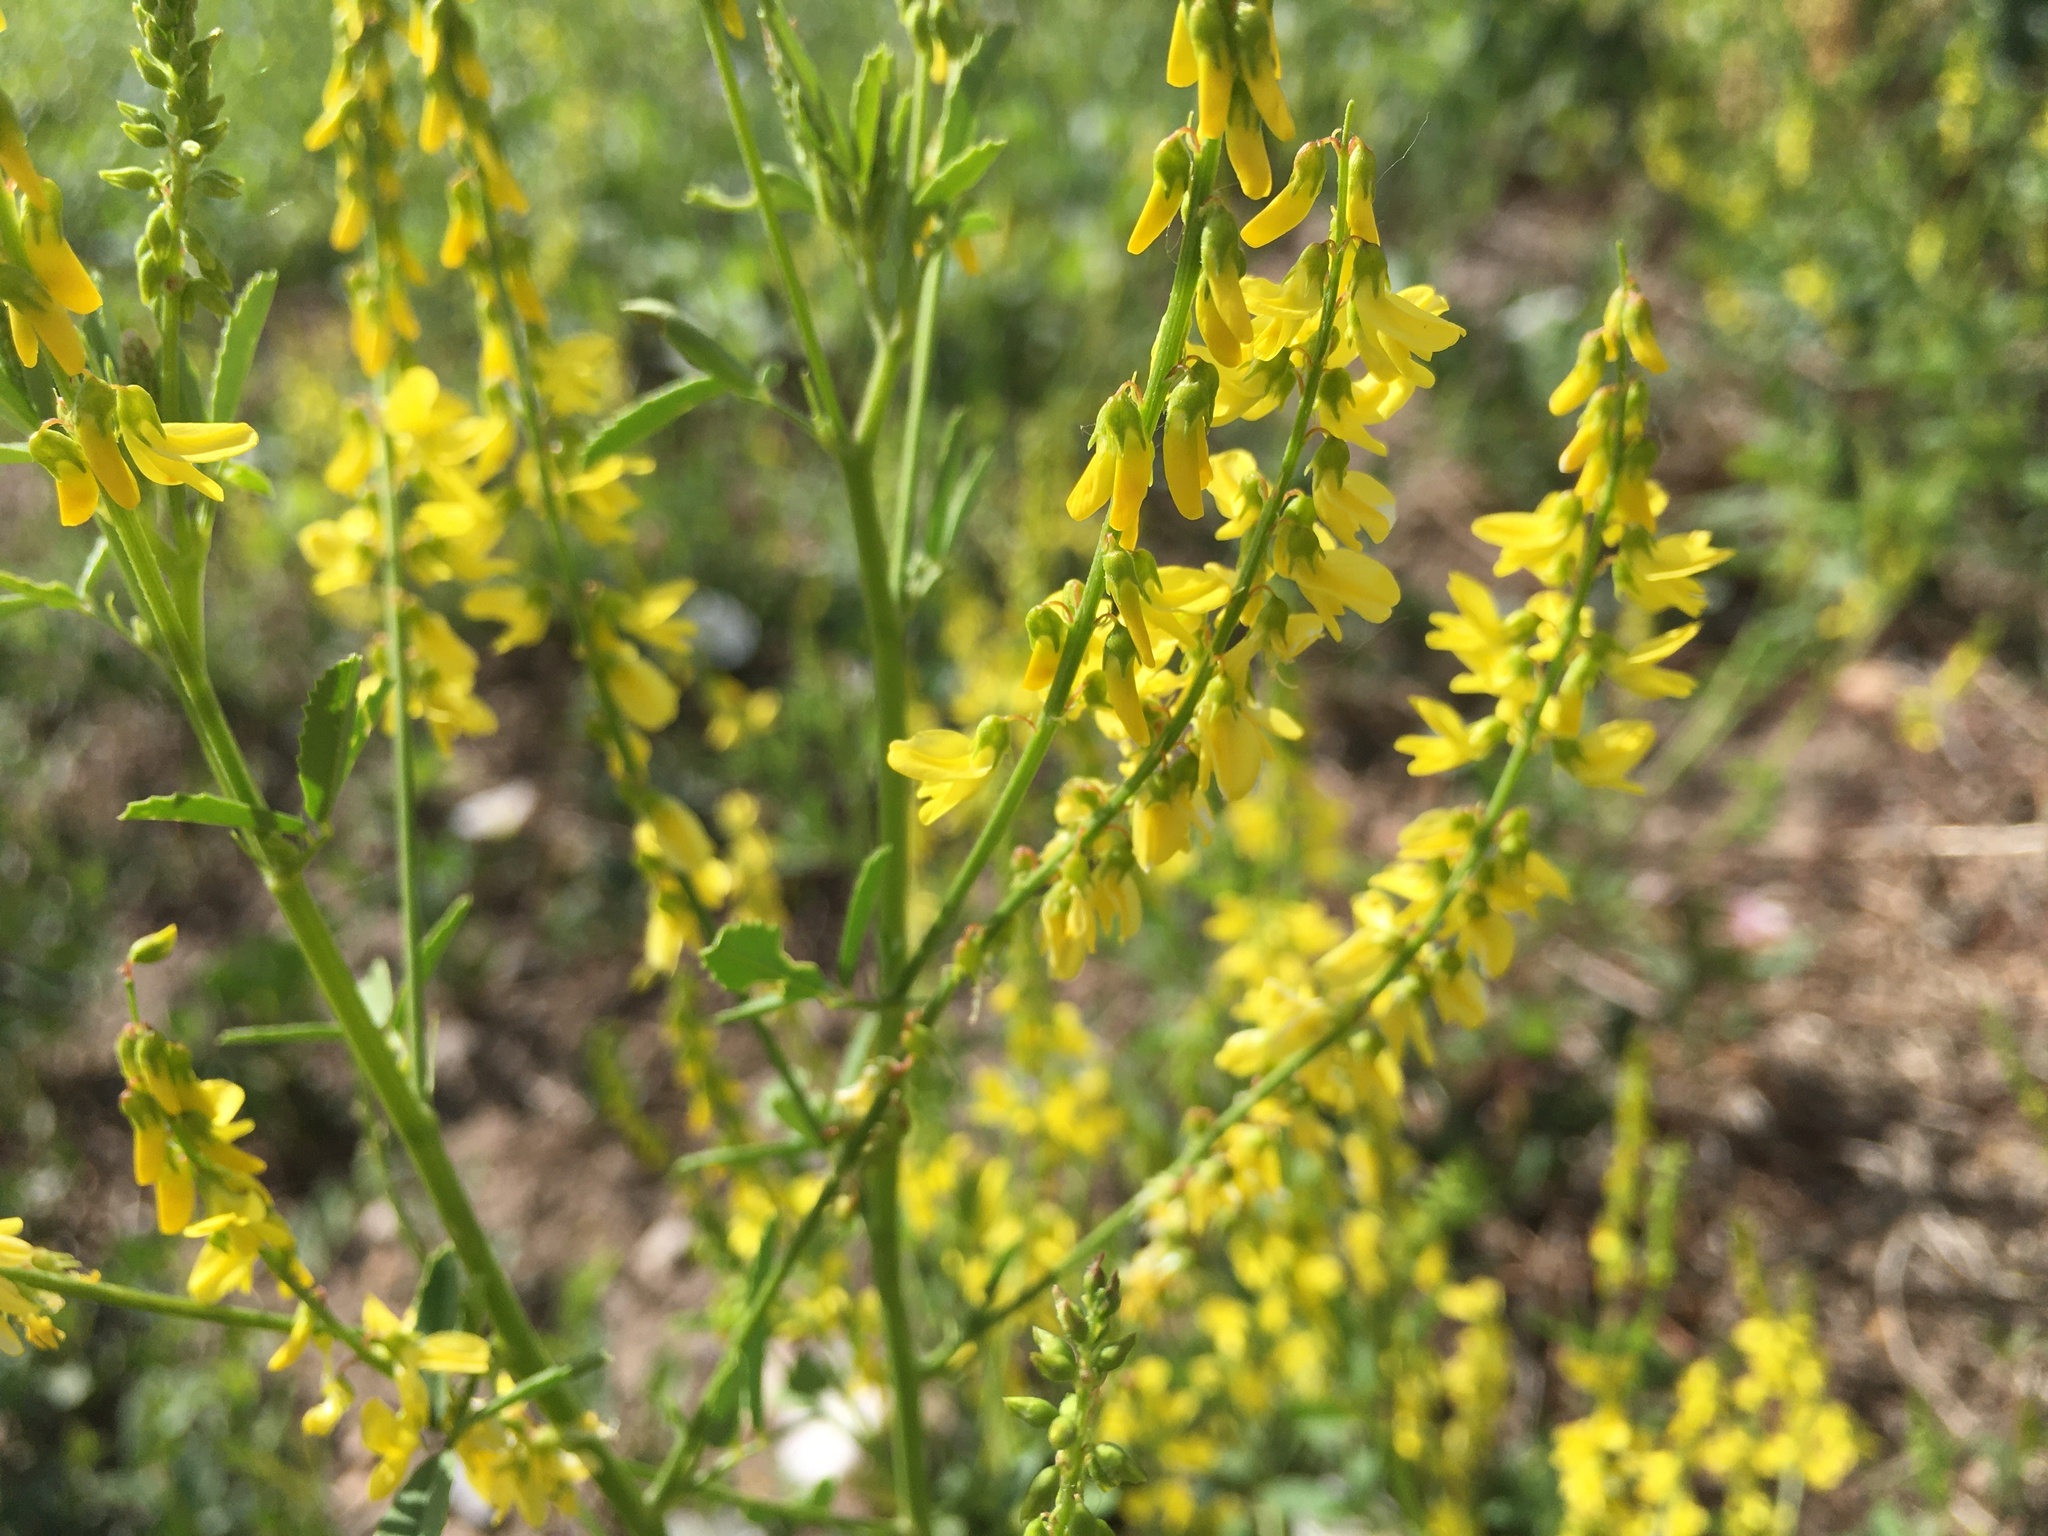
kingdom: Plantae
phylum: Tracheophyta
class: Magnoliopsida
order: Fabales
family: Fabaceae
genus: Melilotus
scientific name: Melilotus officinalis
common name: Sweetclover
